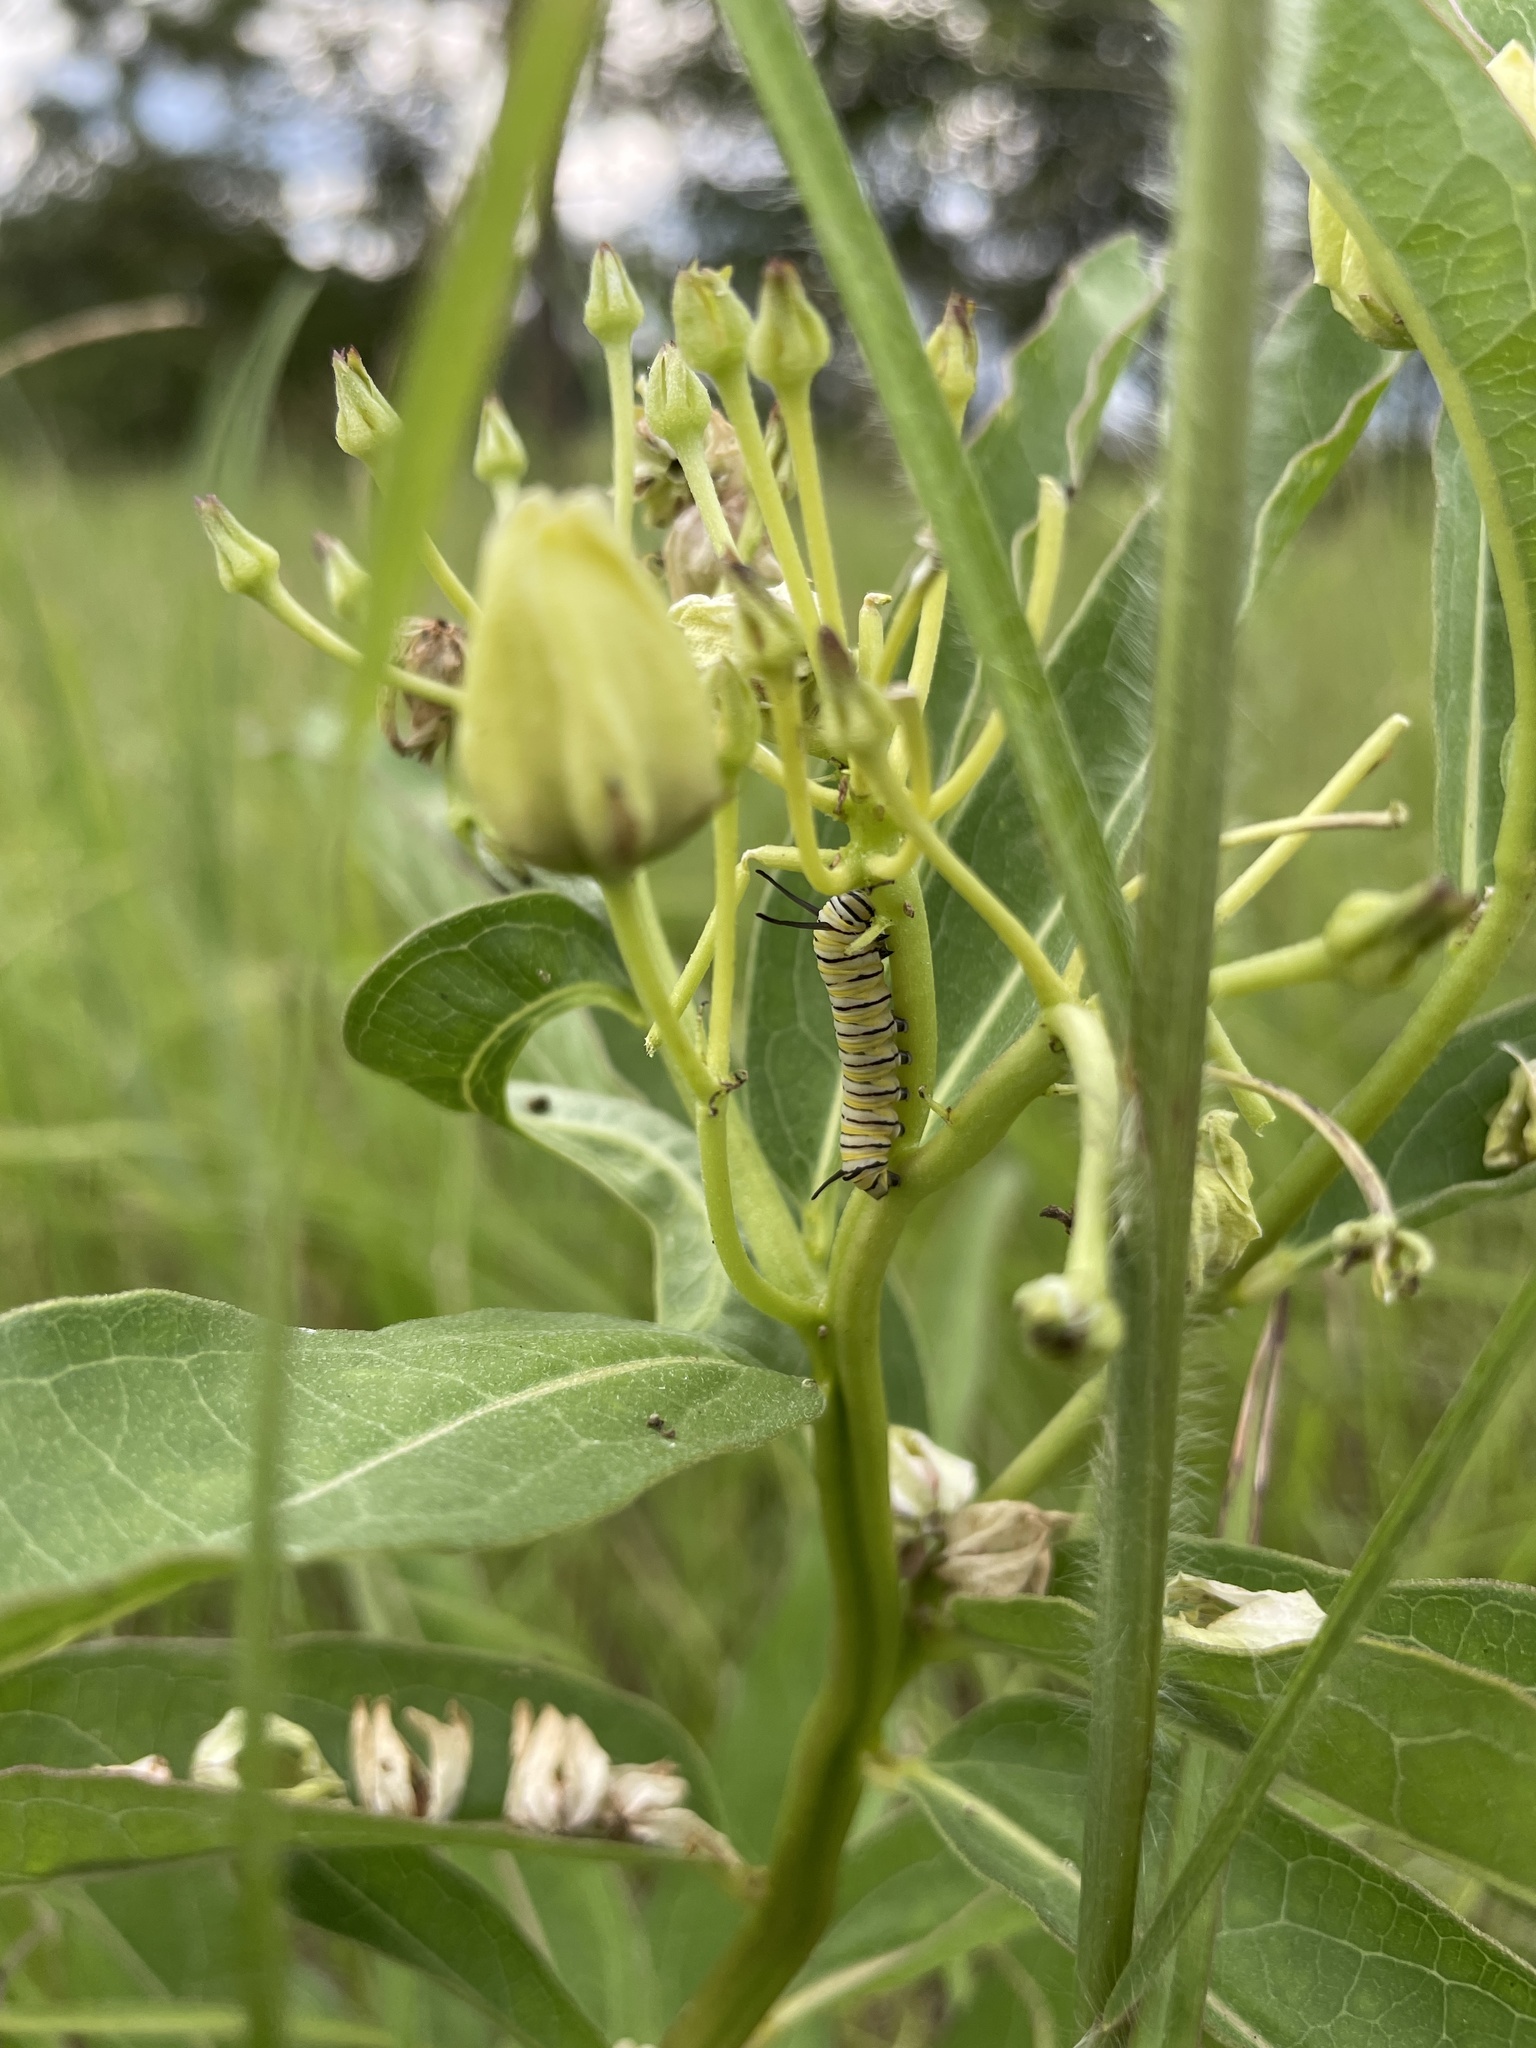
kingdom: Animalia
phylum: Arthropoda
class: Insecta
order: Lepidoptera
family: Nymphalidae
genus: Danaus
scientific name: Danaus plexippus
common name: Monarch
